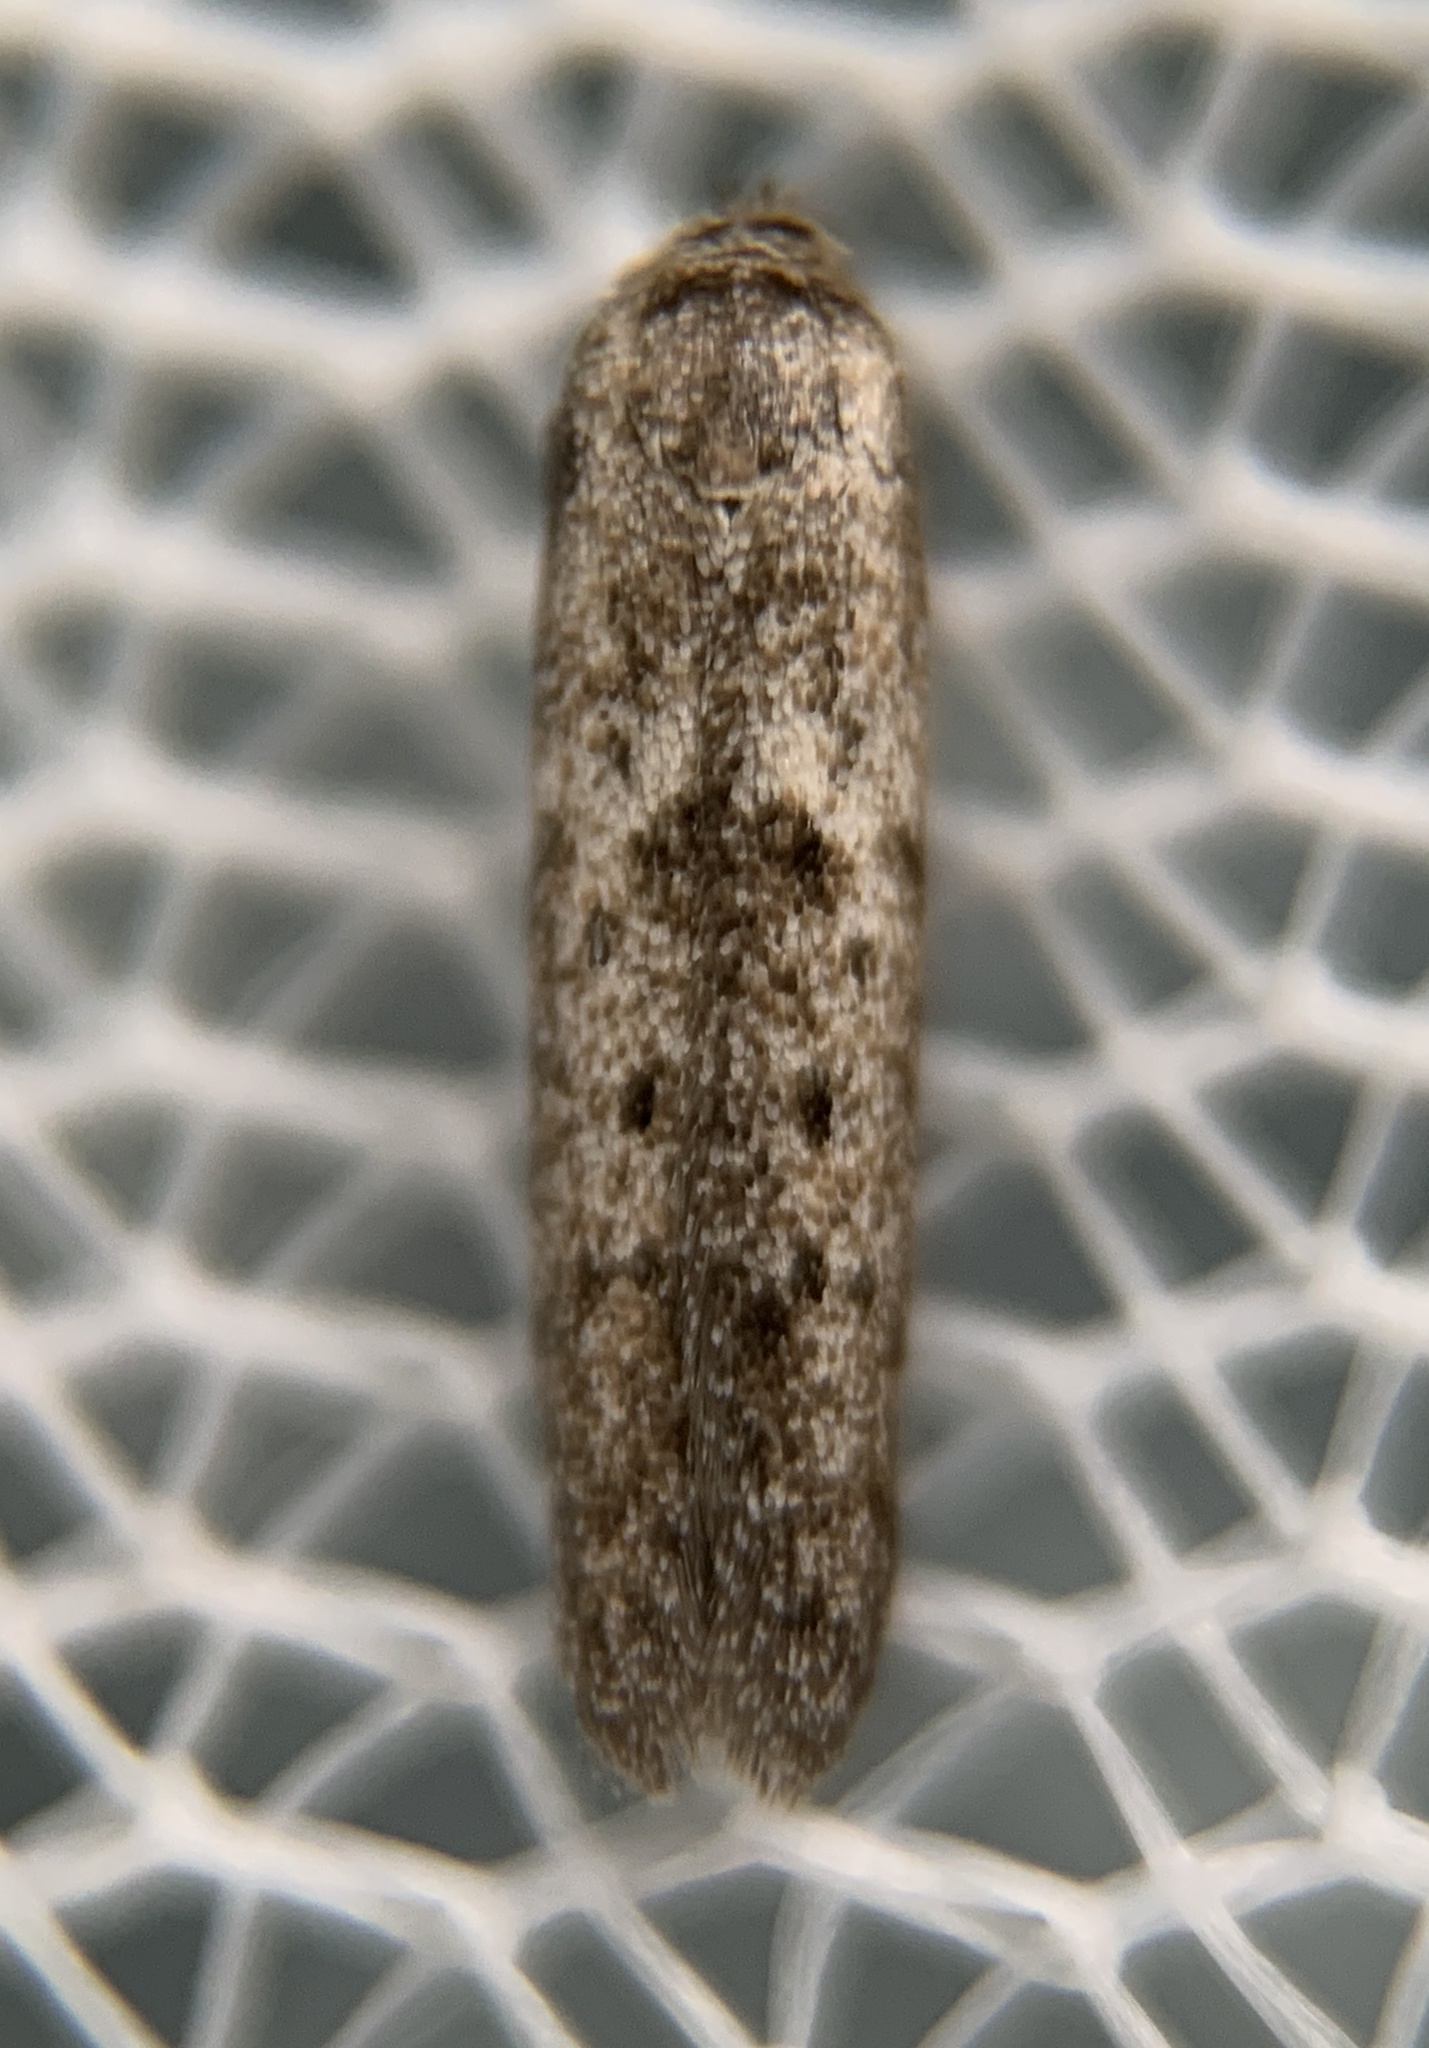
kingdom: Animalia
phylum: Arthropoda
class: Insecta
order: Lepidoptera
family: Blastobasidae
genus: Hypatopa
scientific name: Hypatopa punctiferella
